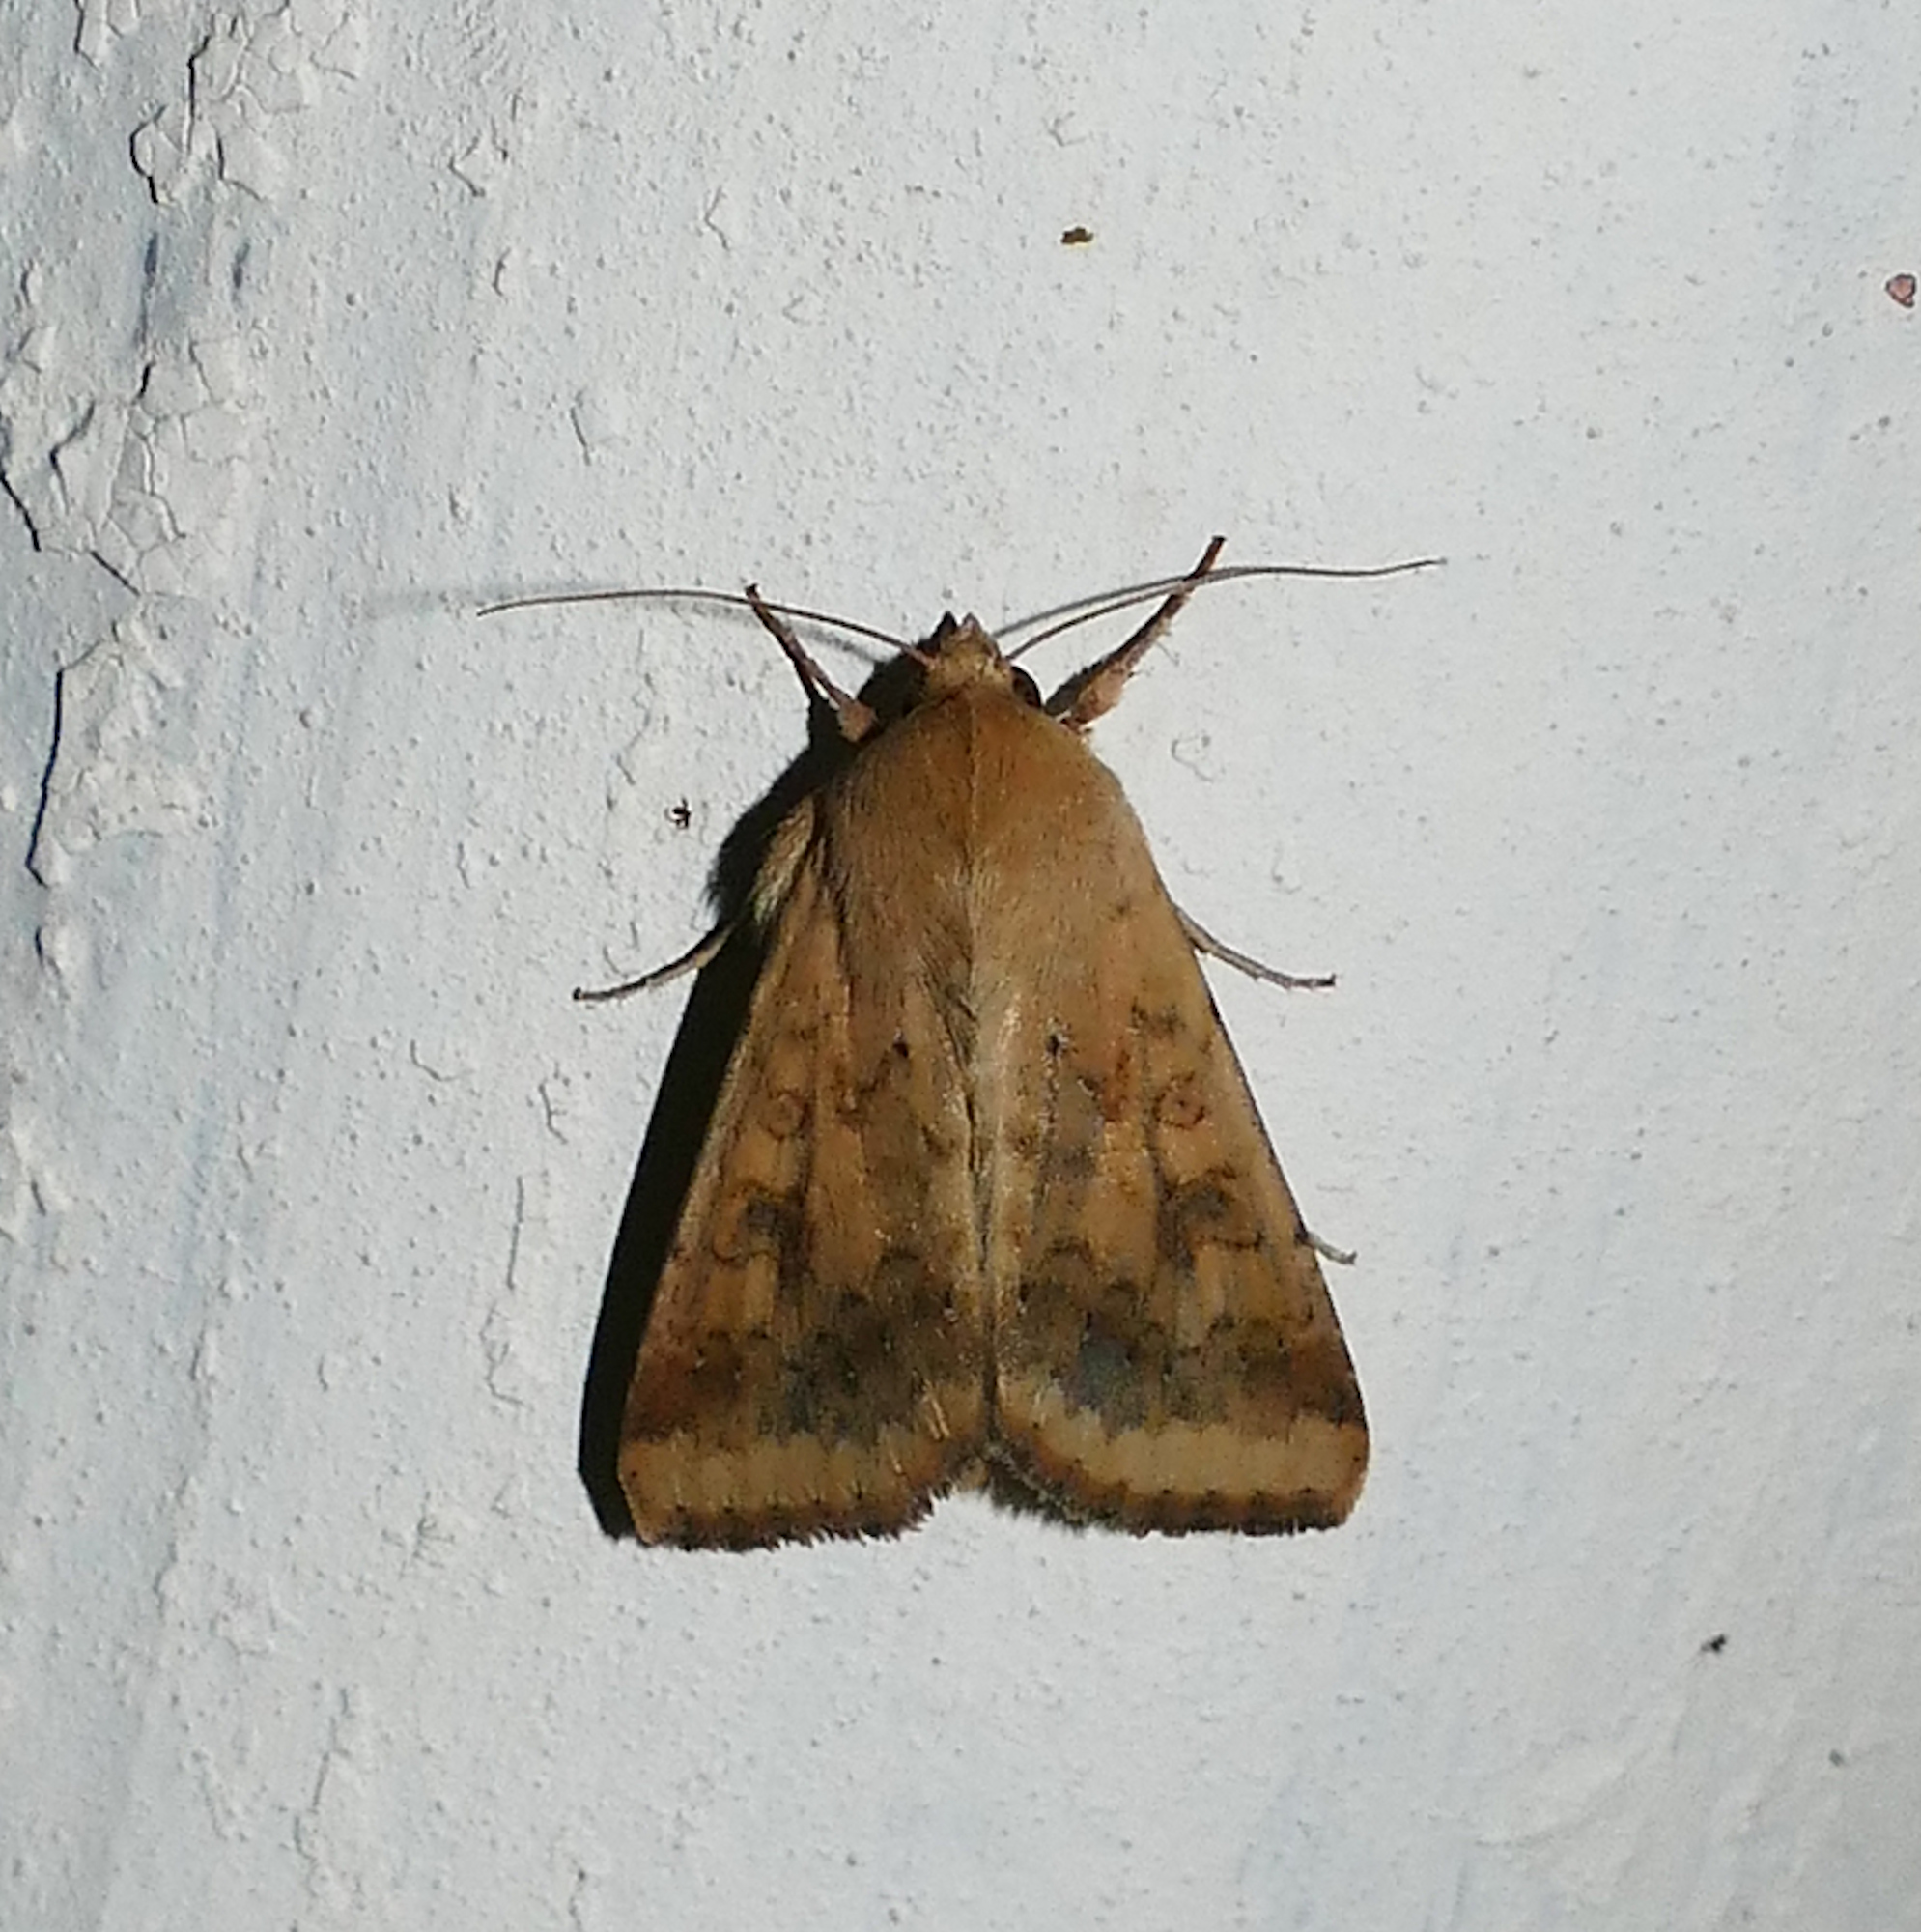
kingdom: Animalia
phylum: Arthropoda
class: Insecta
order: Lepidoptera
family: Noctuidae
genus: Helicoverpa
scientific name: Helicoverpa zea
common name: Bollworm
